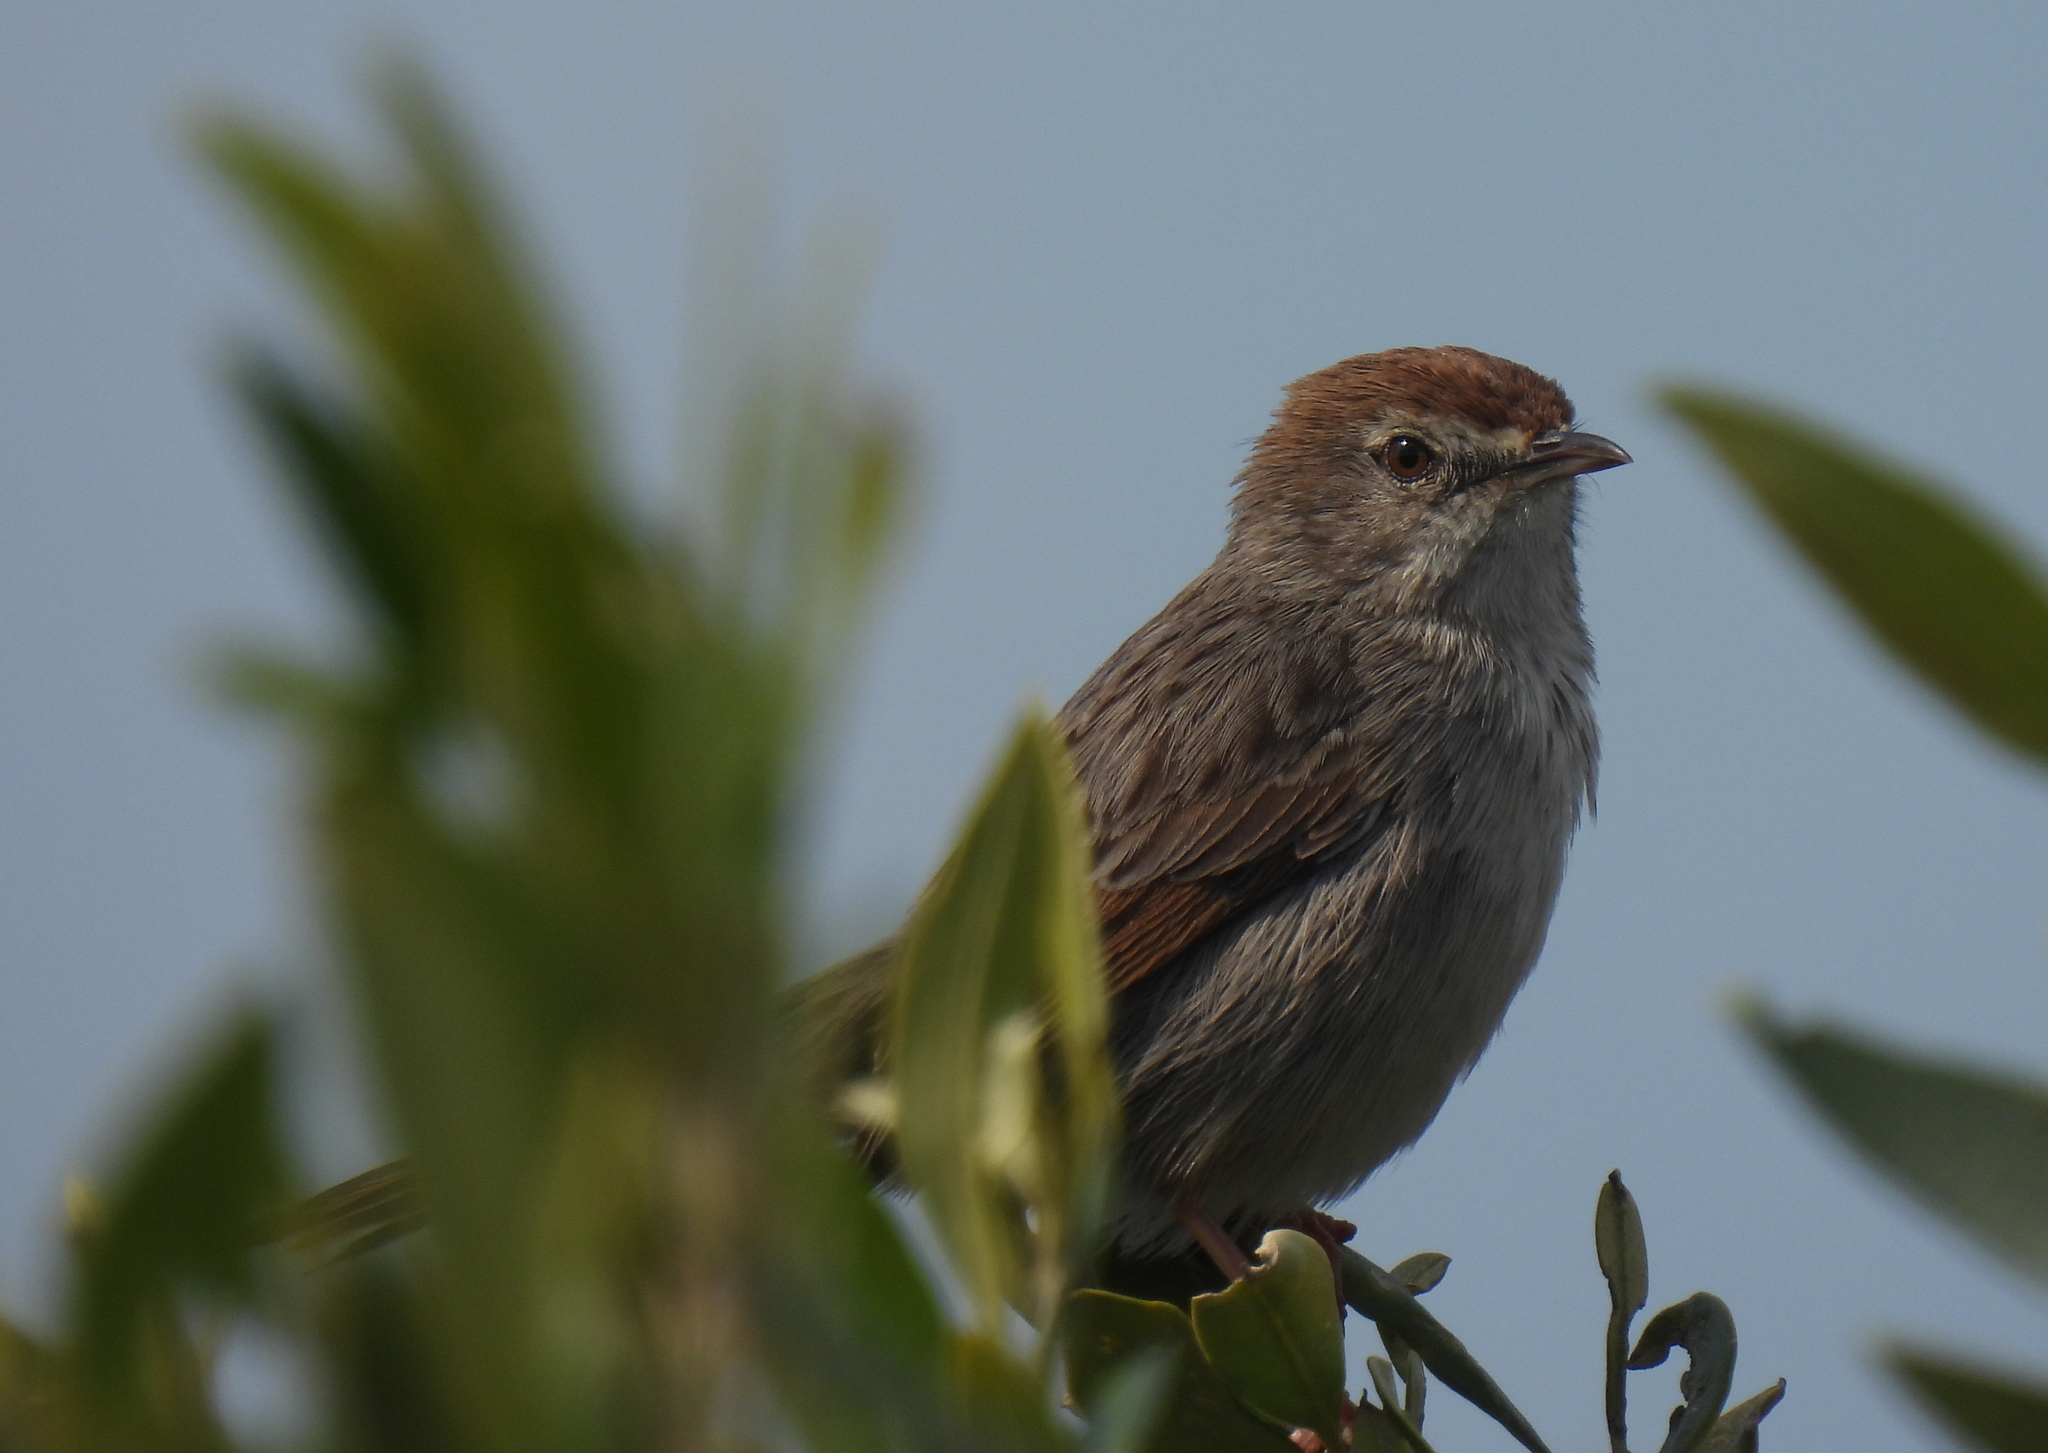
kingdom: Animalia
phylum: Chordata
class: Aves
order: Passeriformes
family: Cisticolidae
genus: Cisticola
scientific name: Cisticola subruficapilla
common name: Grey-backed cisticola
